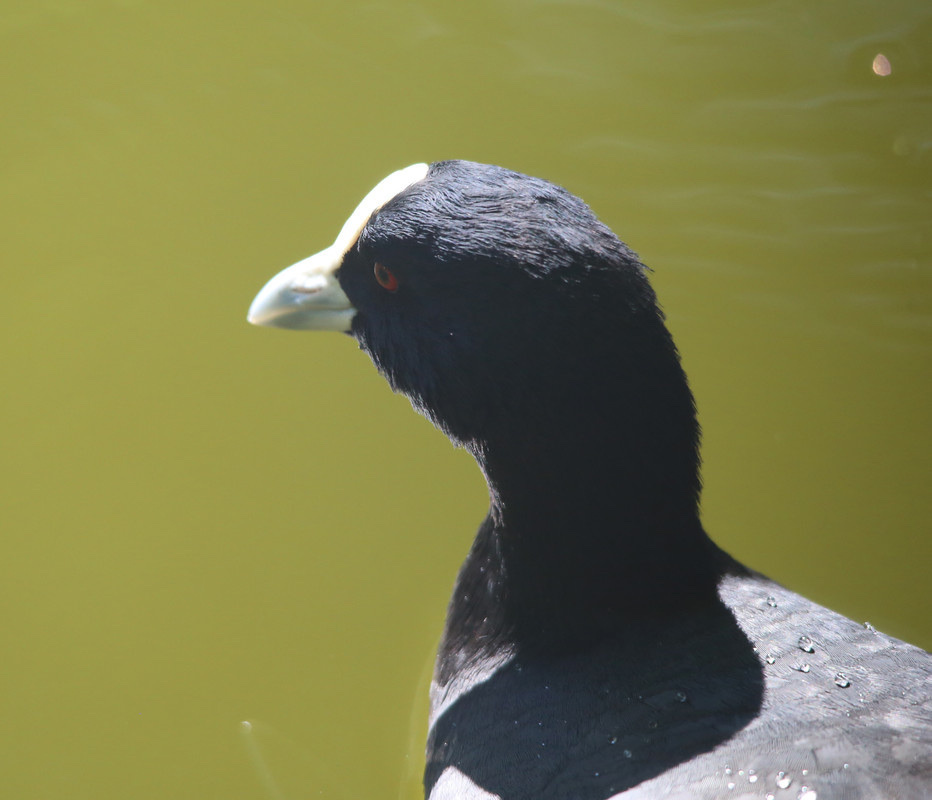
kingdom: Animalia
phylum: Chordata
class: Aves
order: Gruiformes
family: Rallidae
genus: Fulica
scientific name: Fulica atra
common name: Eurasian coot
